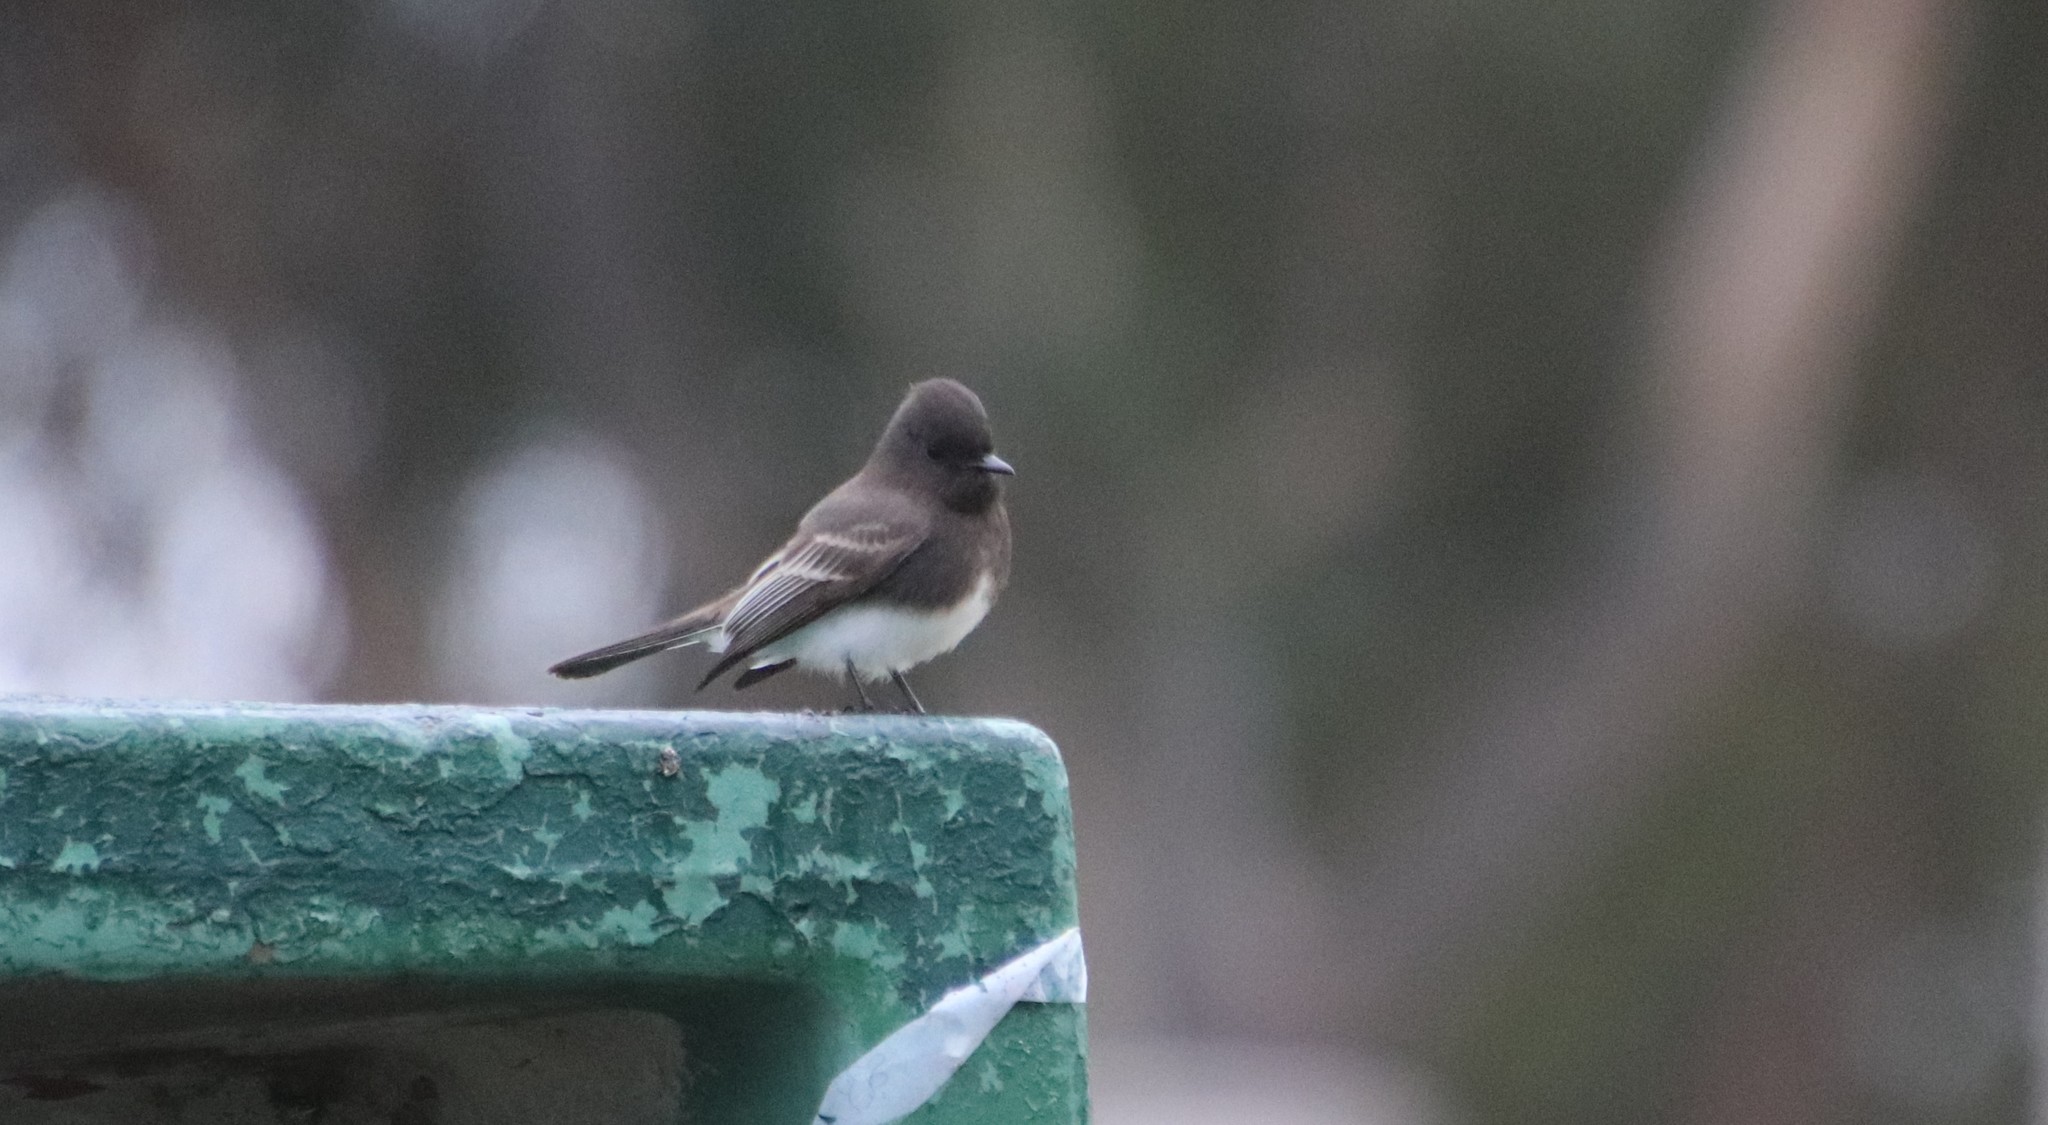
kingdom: Animalia
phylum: Chordata
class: Aves
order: Passeriformes
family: Tyrannidae
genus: Sayornis
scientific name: Sayornis nigricans
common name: Black phoebe
